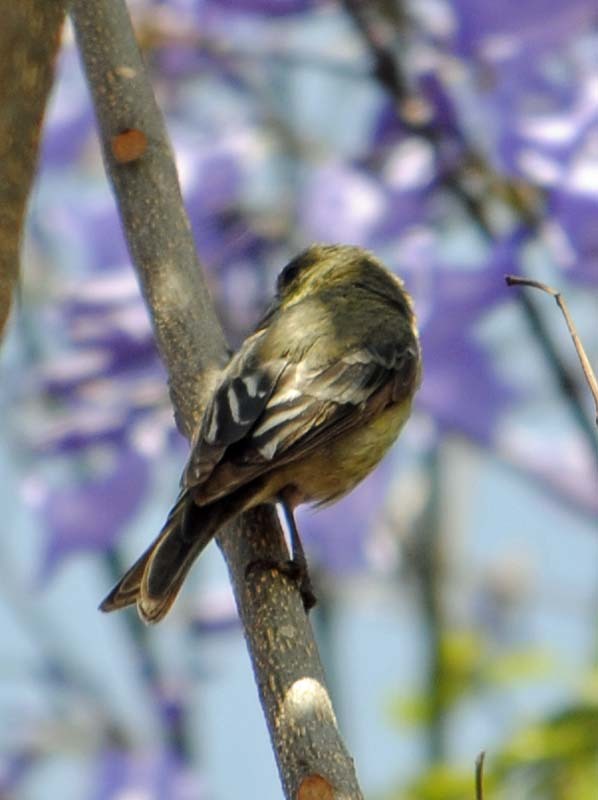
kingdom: Animalia
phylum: Chordata
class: Aves
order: Passeriformes
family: Fringillidae
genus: Spinus
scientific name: Spinus psaltria
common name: Lesser goldfinch
